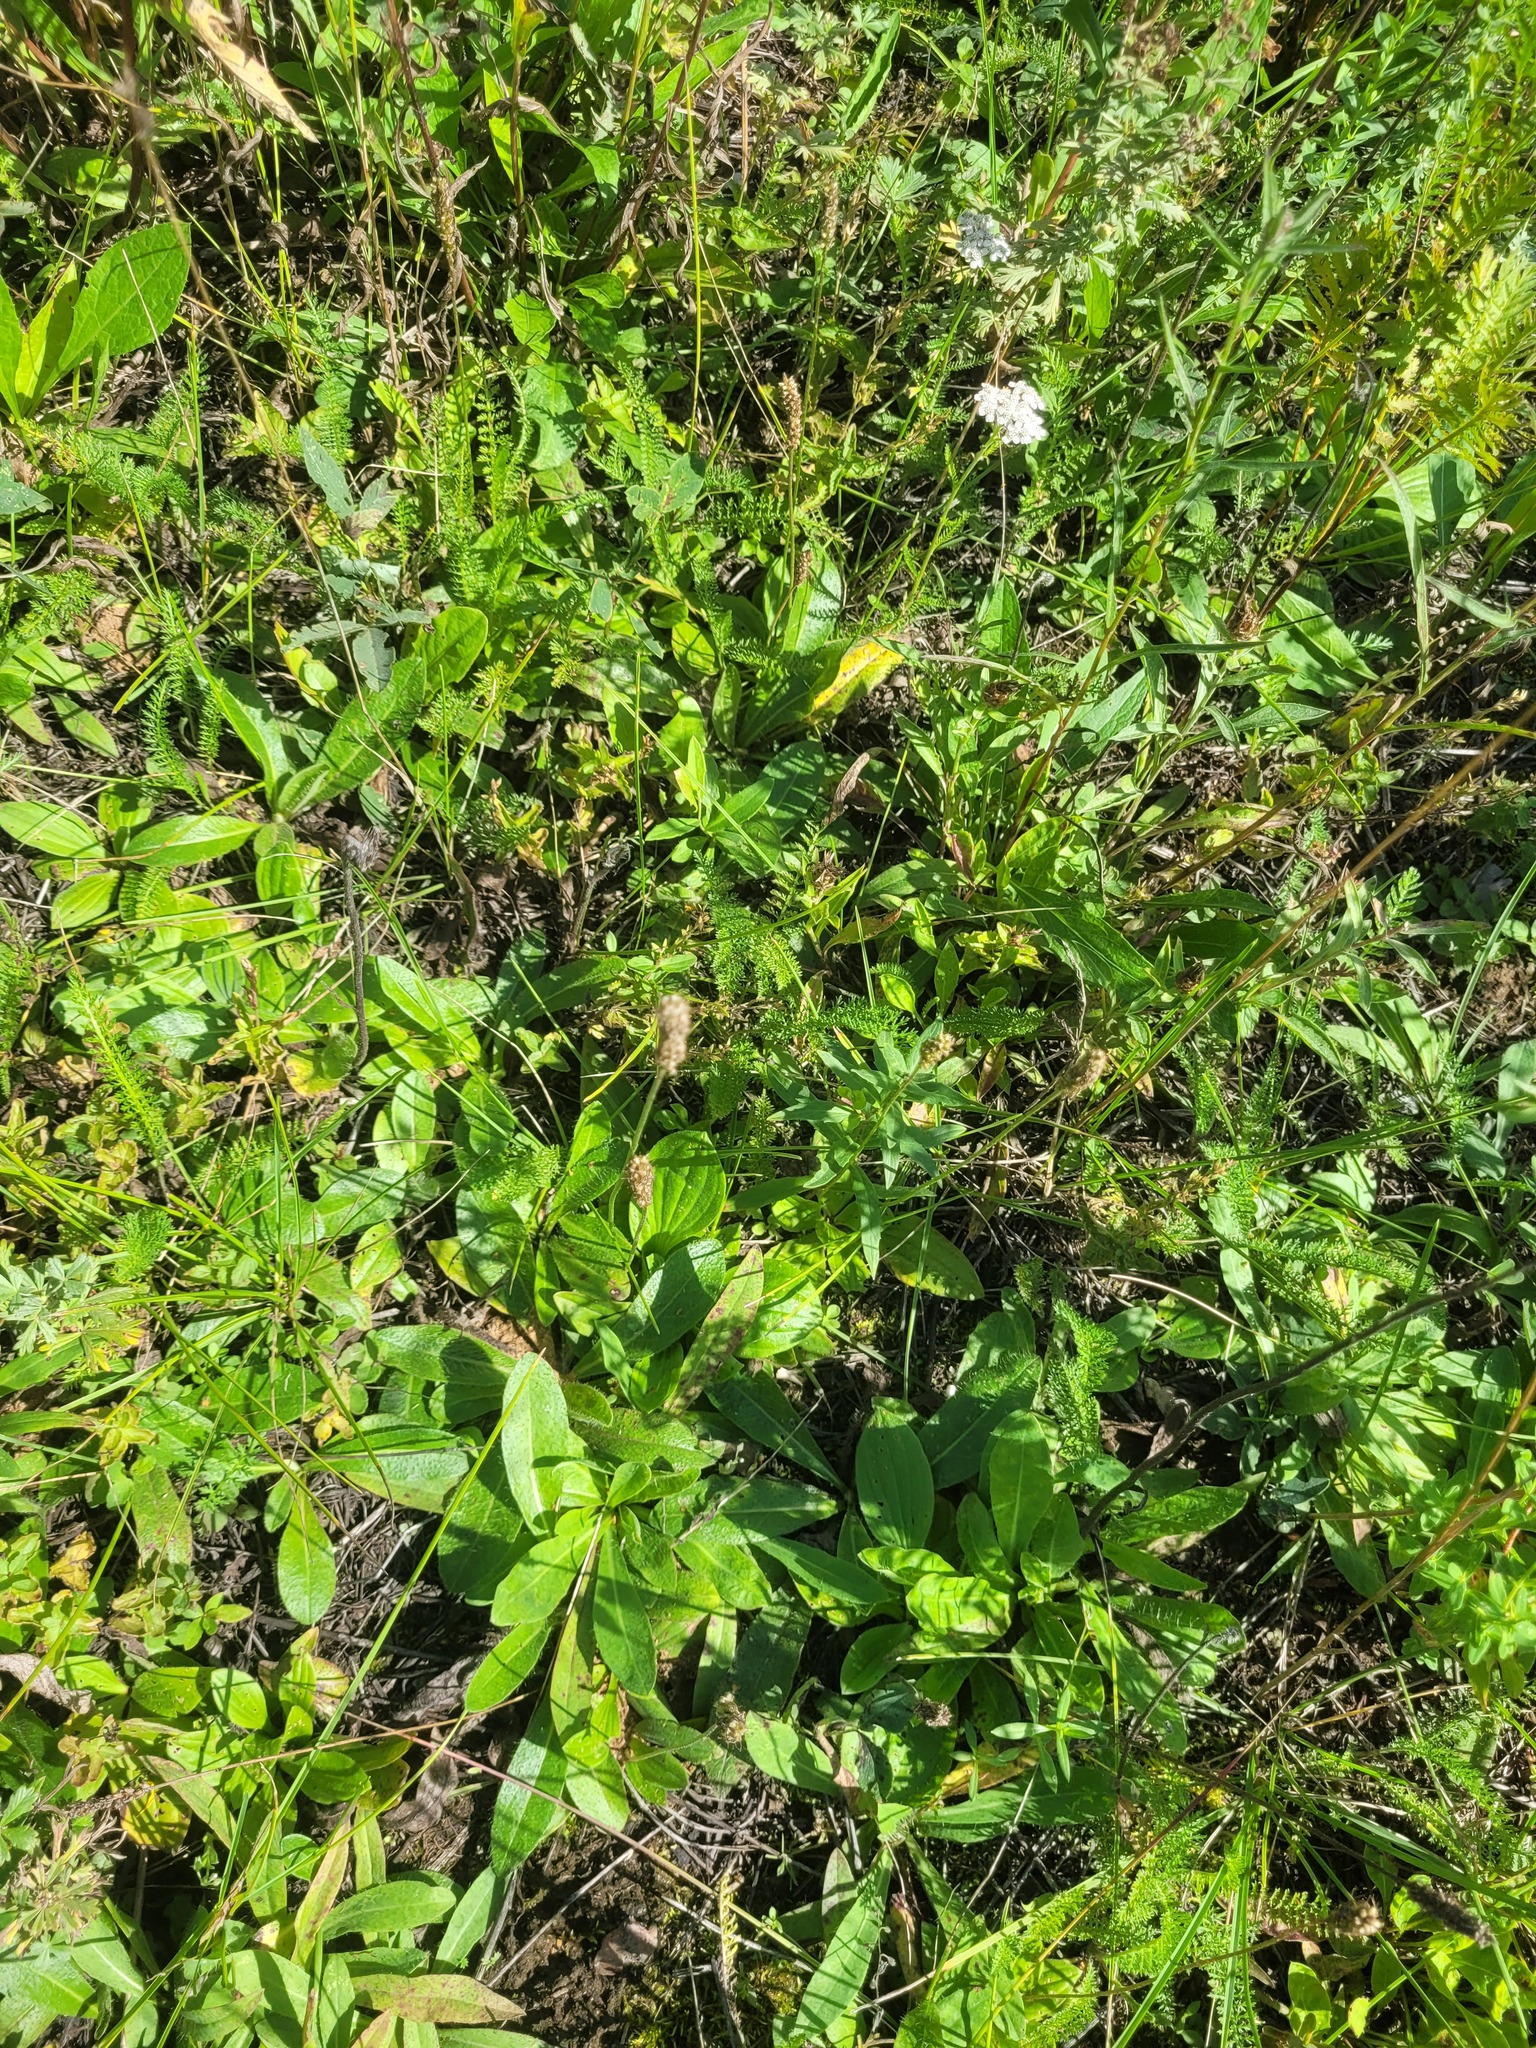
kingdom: Plantae
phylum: Tracheophyta
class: Magnoliopsida
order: Lamiales
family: Plantaginaceae
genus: Plantago
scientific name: Plantago media
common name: Hoary plantain
